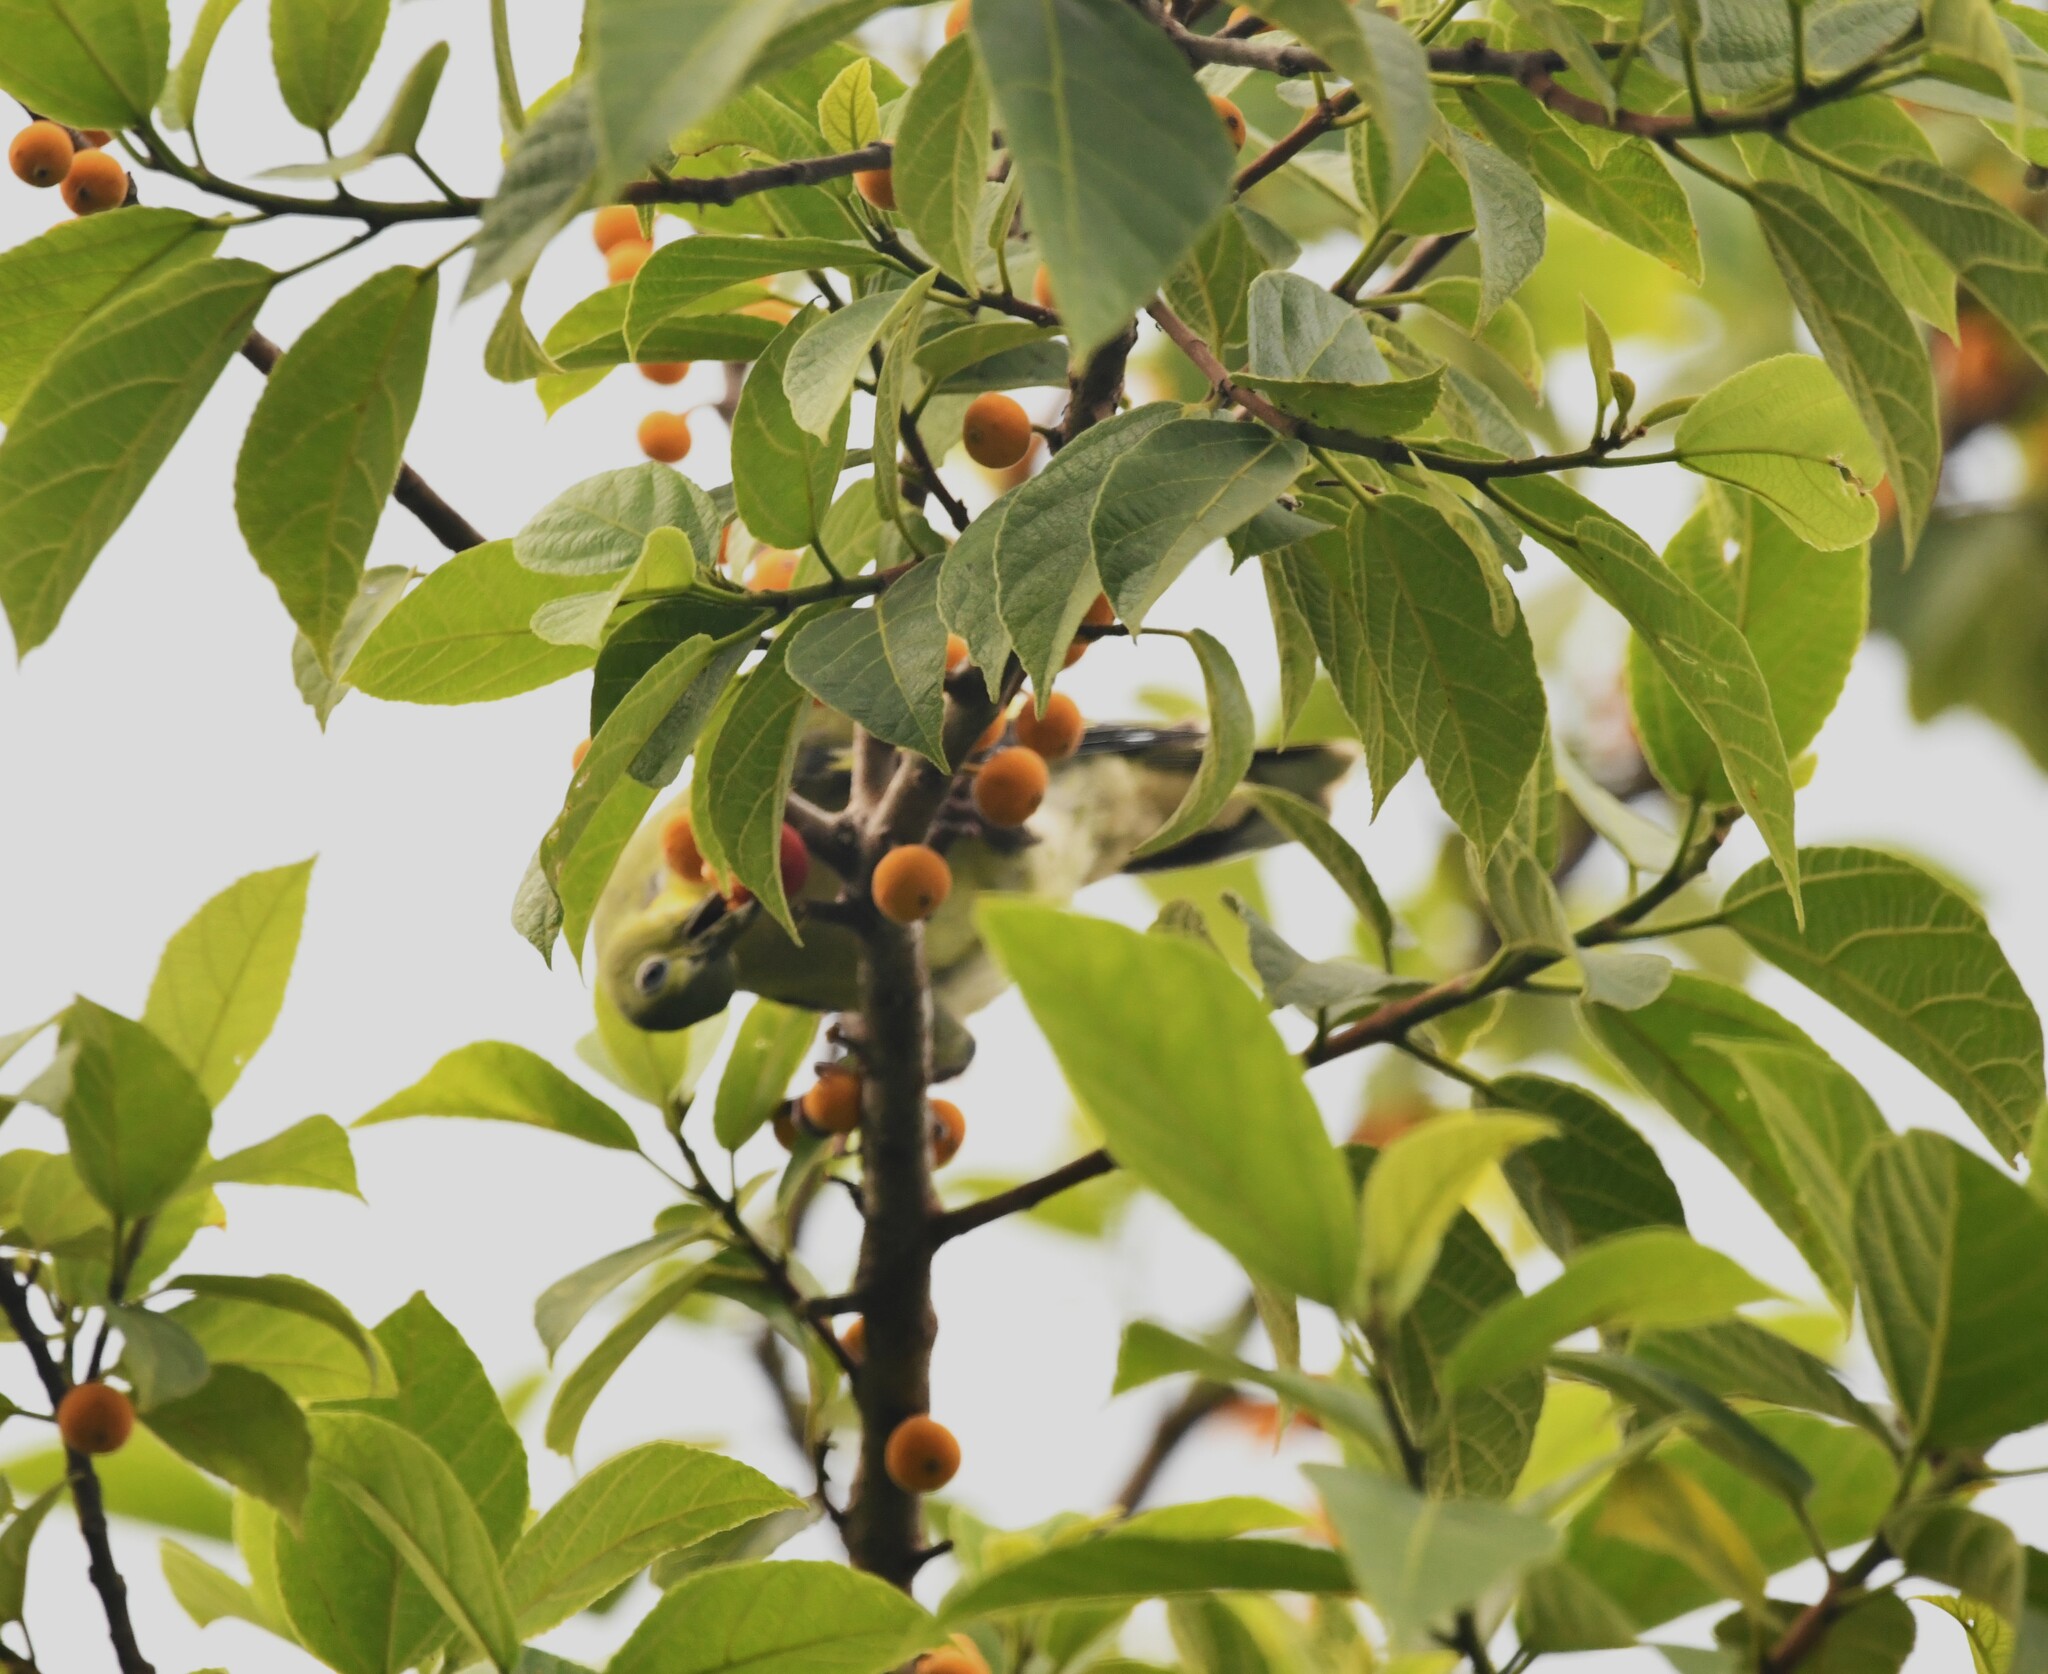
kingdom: Animalia
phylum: Chordata
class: Aves
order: Columbiformes
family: Columbidae
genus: Treron
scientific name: Treron affinis
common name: Grey-fronted green pigeon
